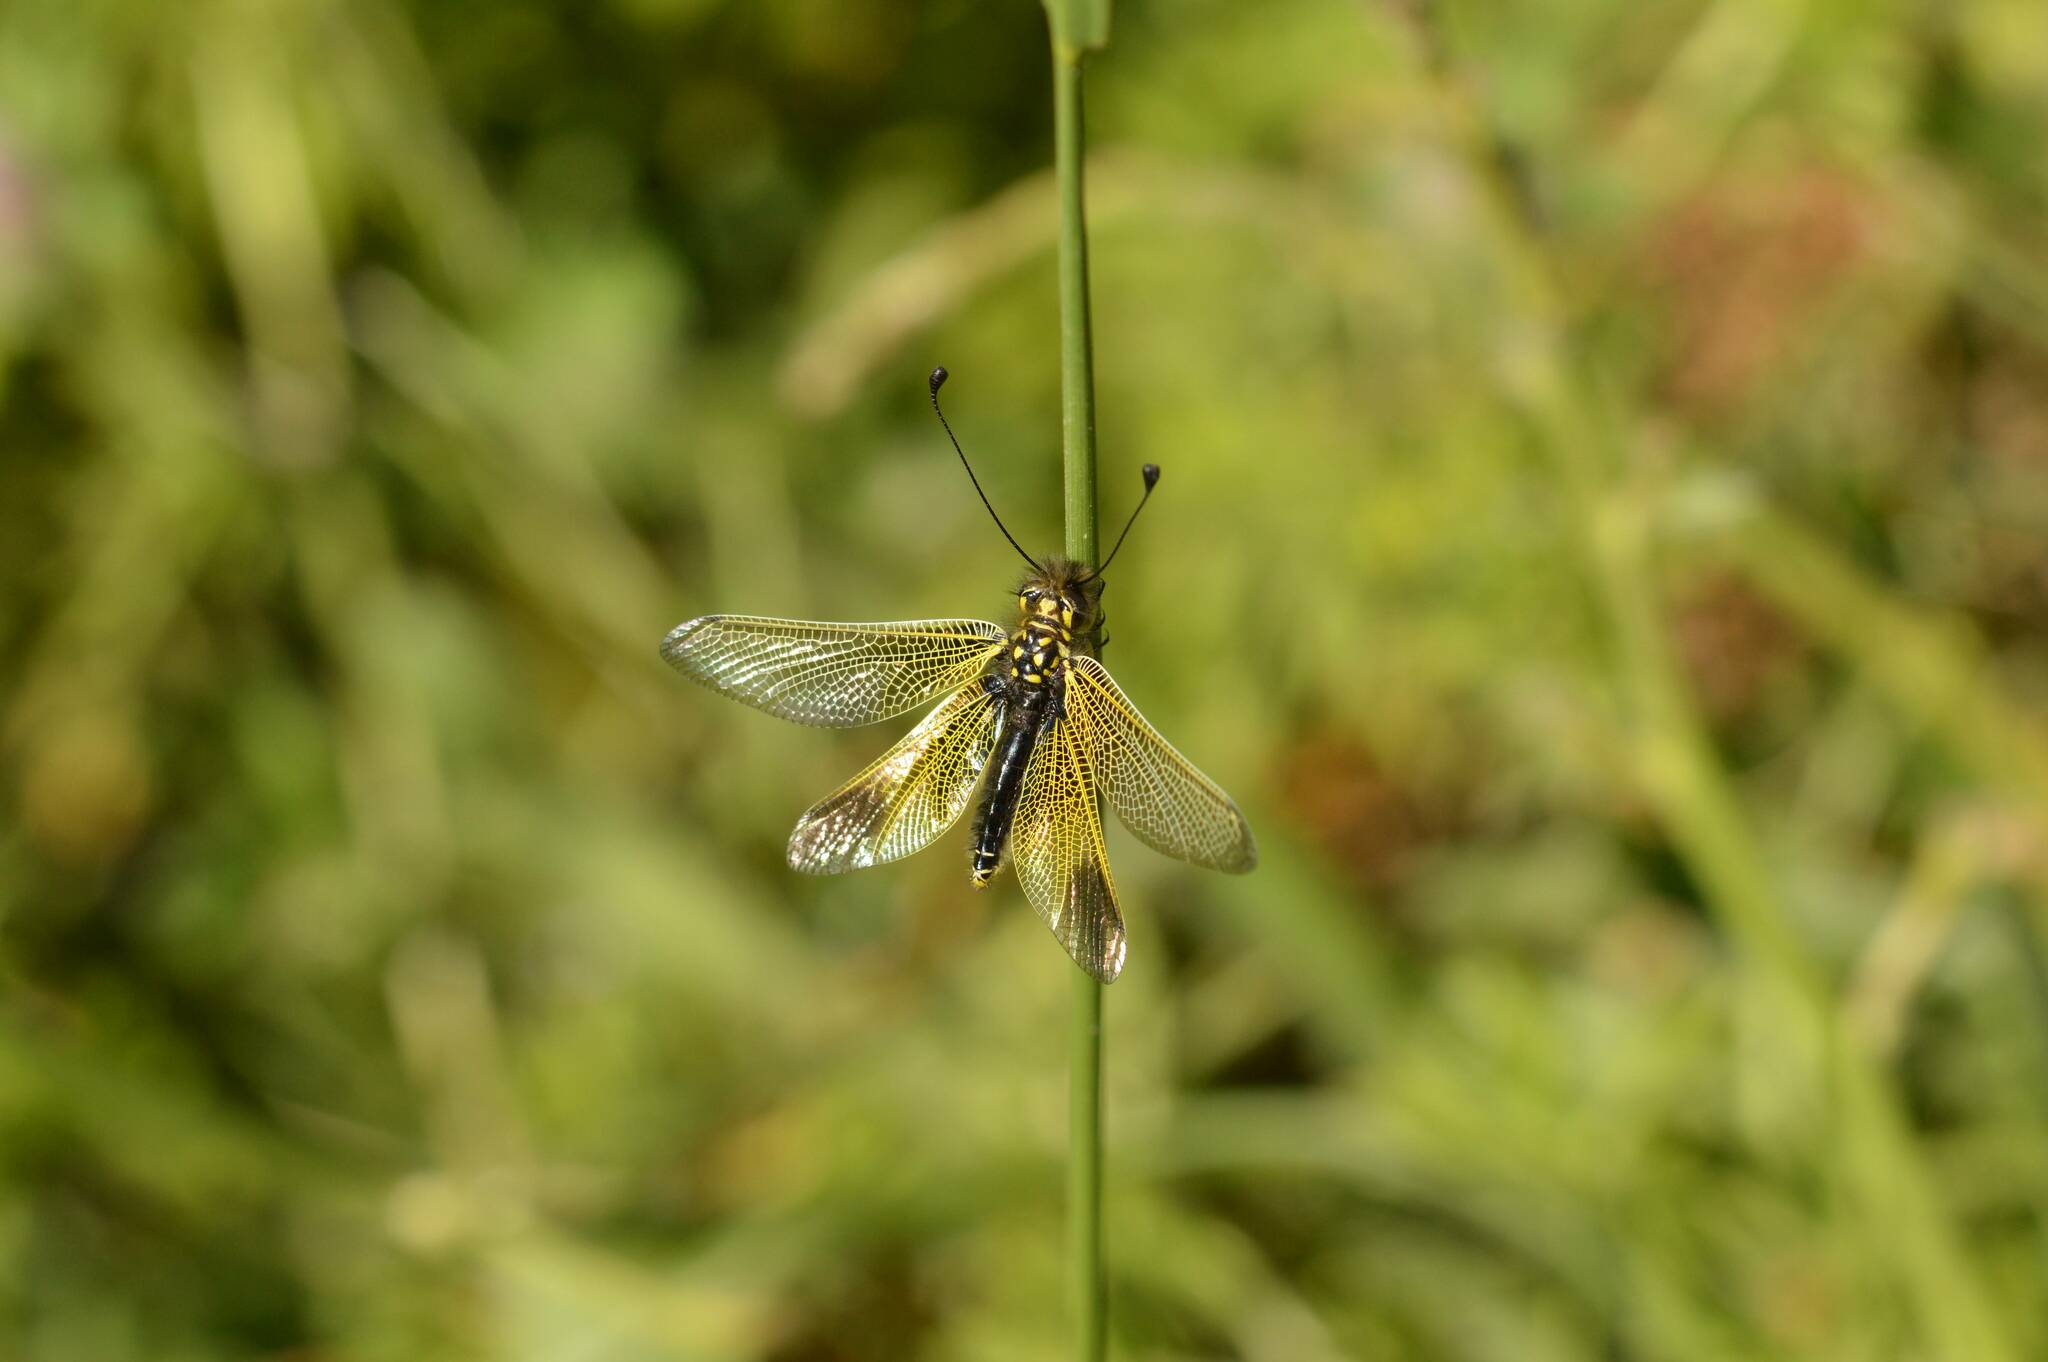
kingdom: Animalia
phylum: Arthropoda
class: Insecta
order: Neuroptera
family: Ascalaphidae
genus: Libelloides
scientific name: Libelloides ictericus
